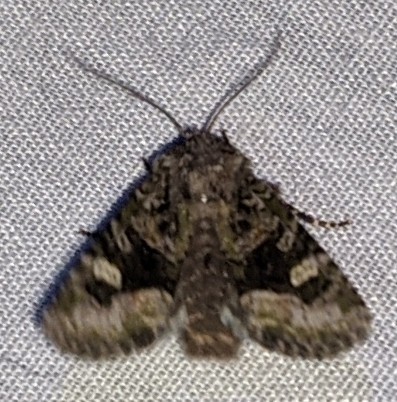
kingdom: Animalia
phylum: Arthropoda
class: Insecta
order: Lepidoptera
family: Noctuidae
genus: Lacinipolia
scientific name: Lacinipolia olivacea
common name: Olive arches moth
